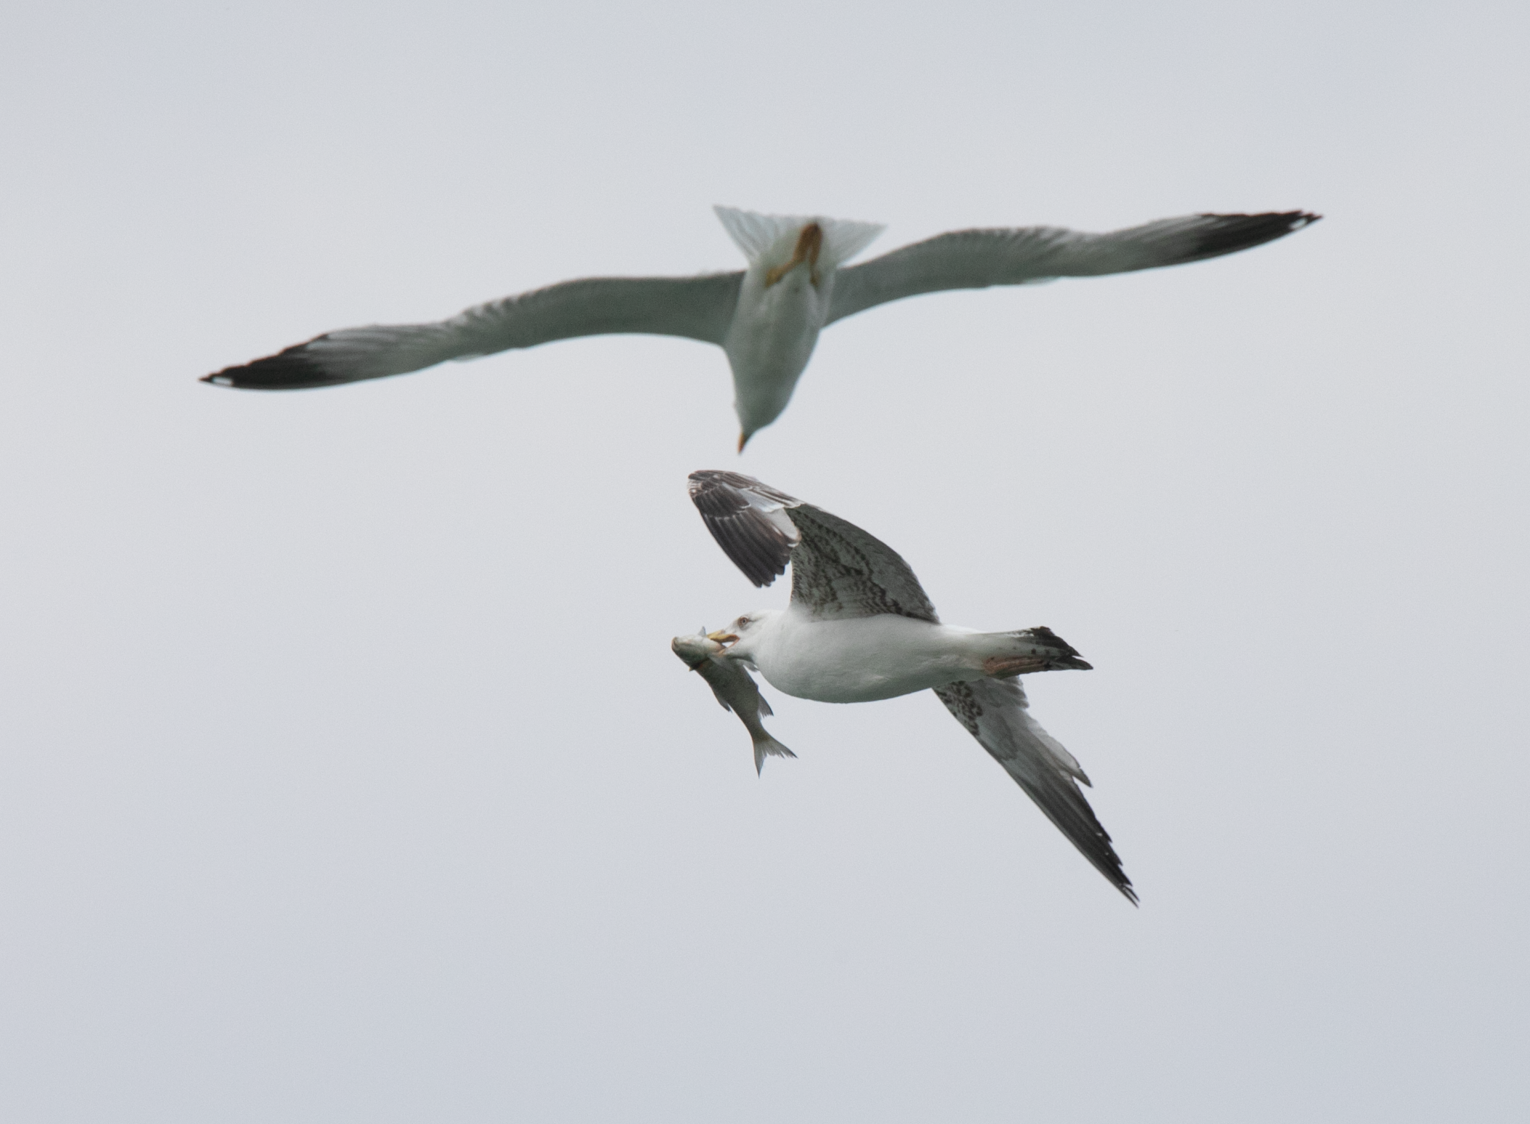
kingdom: Animalia
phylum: Chordata
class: Aves
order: Charadriiformes
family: Laridae
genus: Larus
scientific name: Larus michahellis
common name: Yellow-legged gull
